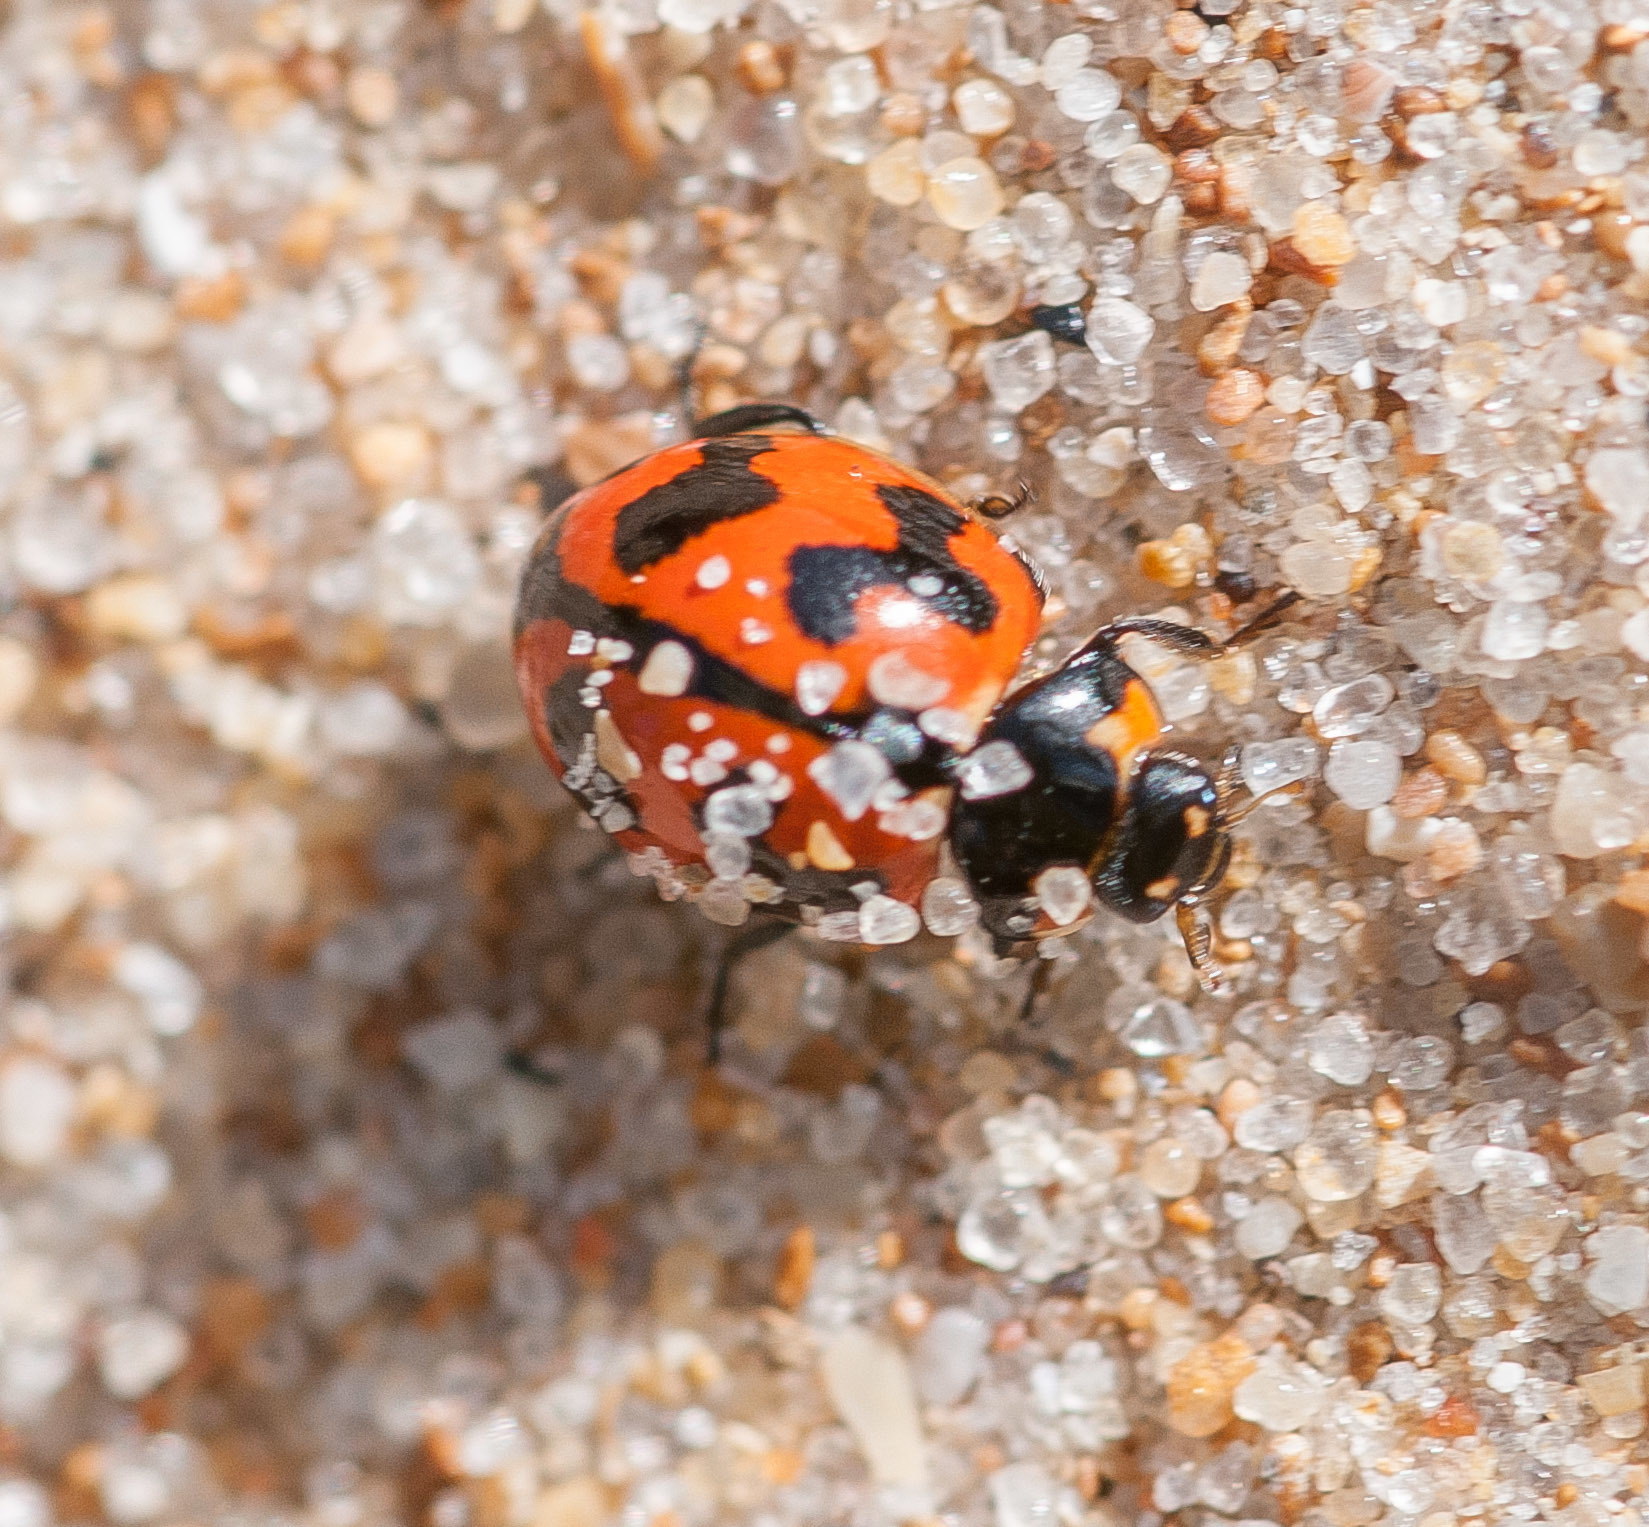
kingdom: Animalia
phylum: Arthropoda
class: Insecta
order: Coleoptera
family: Coccinellidae
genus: Coccinella
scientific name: Coccinella transversalis
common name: Transverse lady beetle
